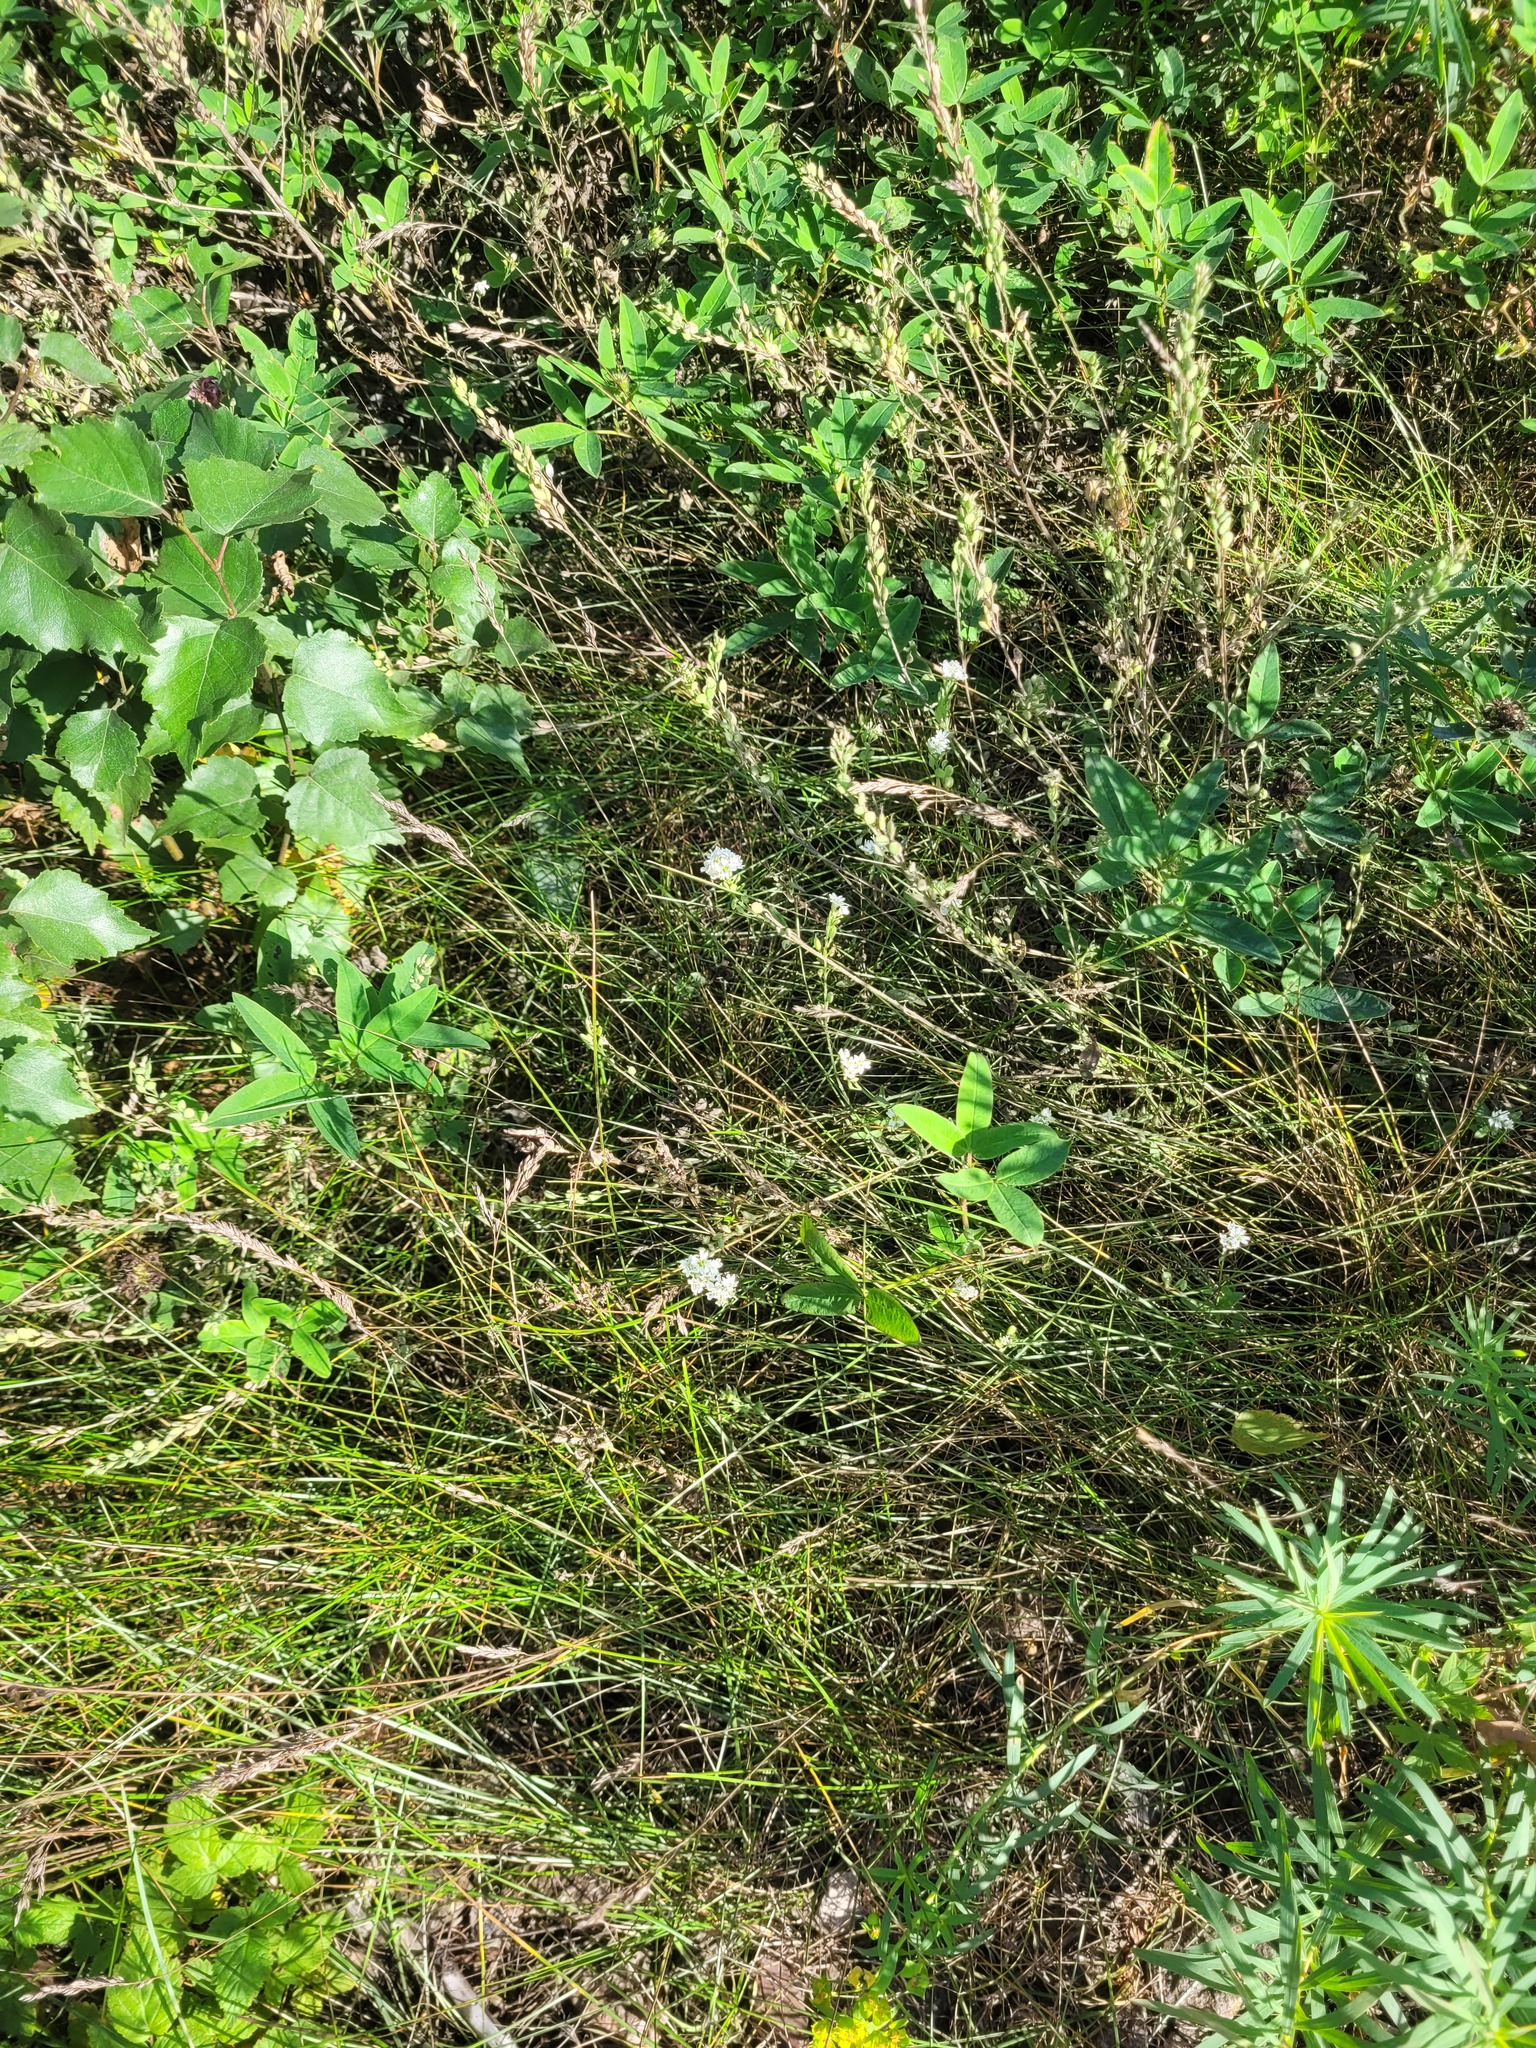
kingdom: Plantae
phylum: Tracheophyta
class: Magnoliopsida
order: Brassicales
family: Brassicaceae
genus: Berteroa
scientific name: Berteroa incana
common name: Hoary alison
